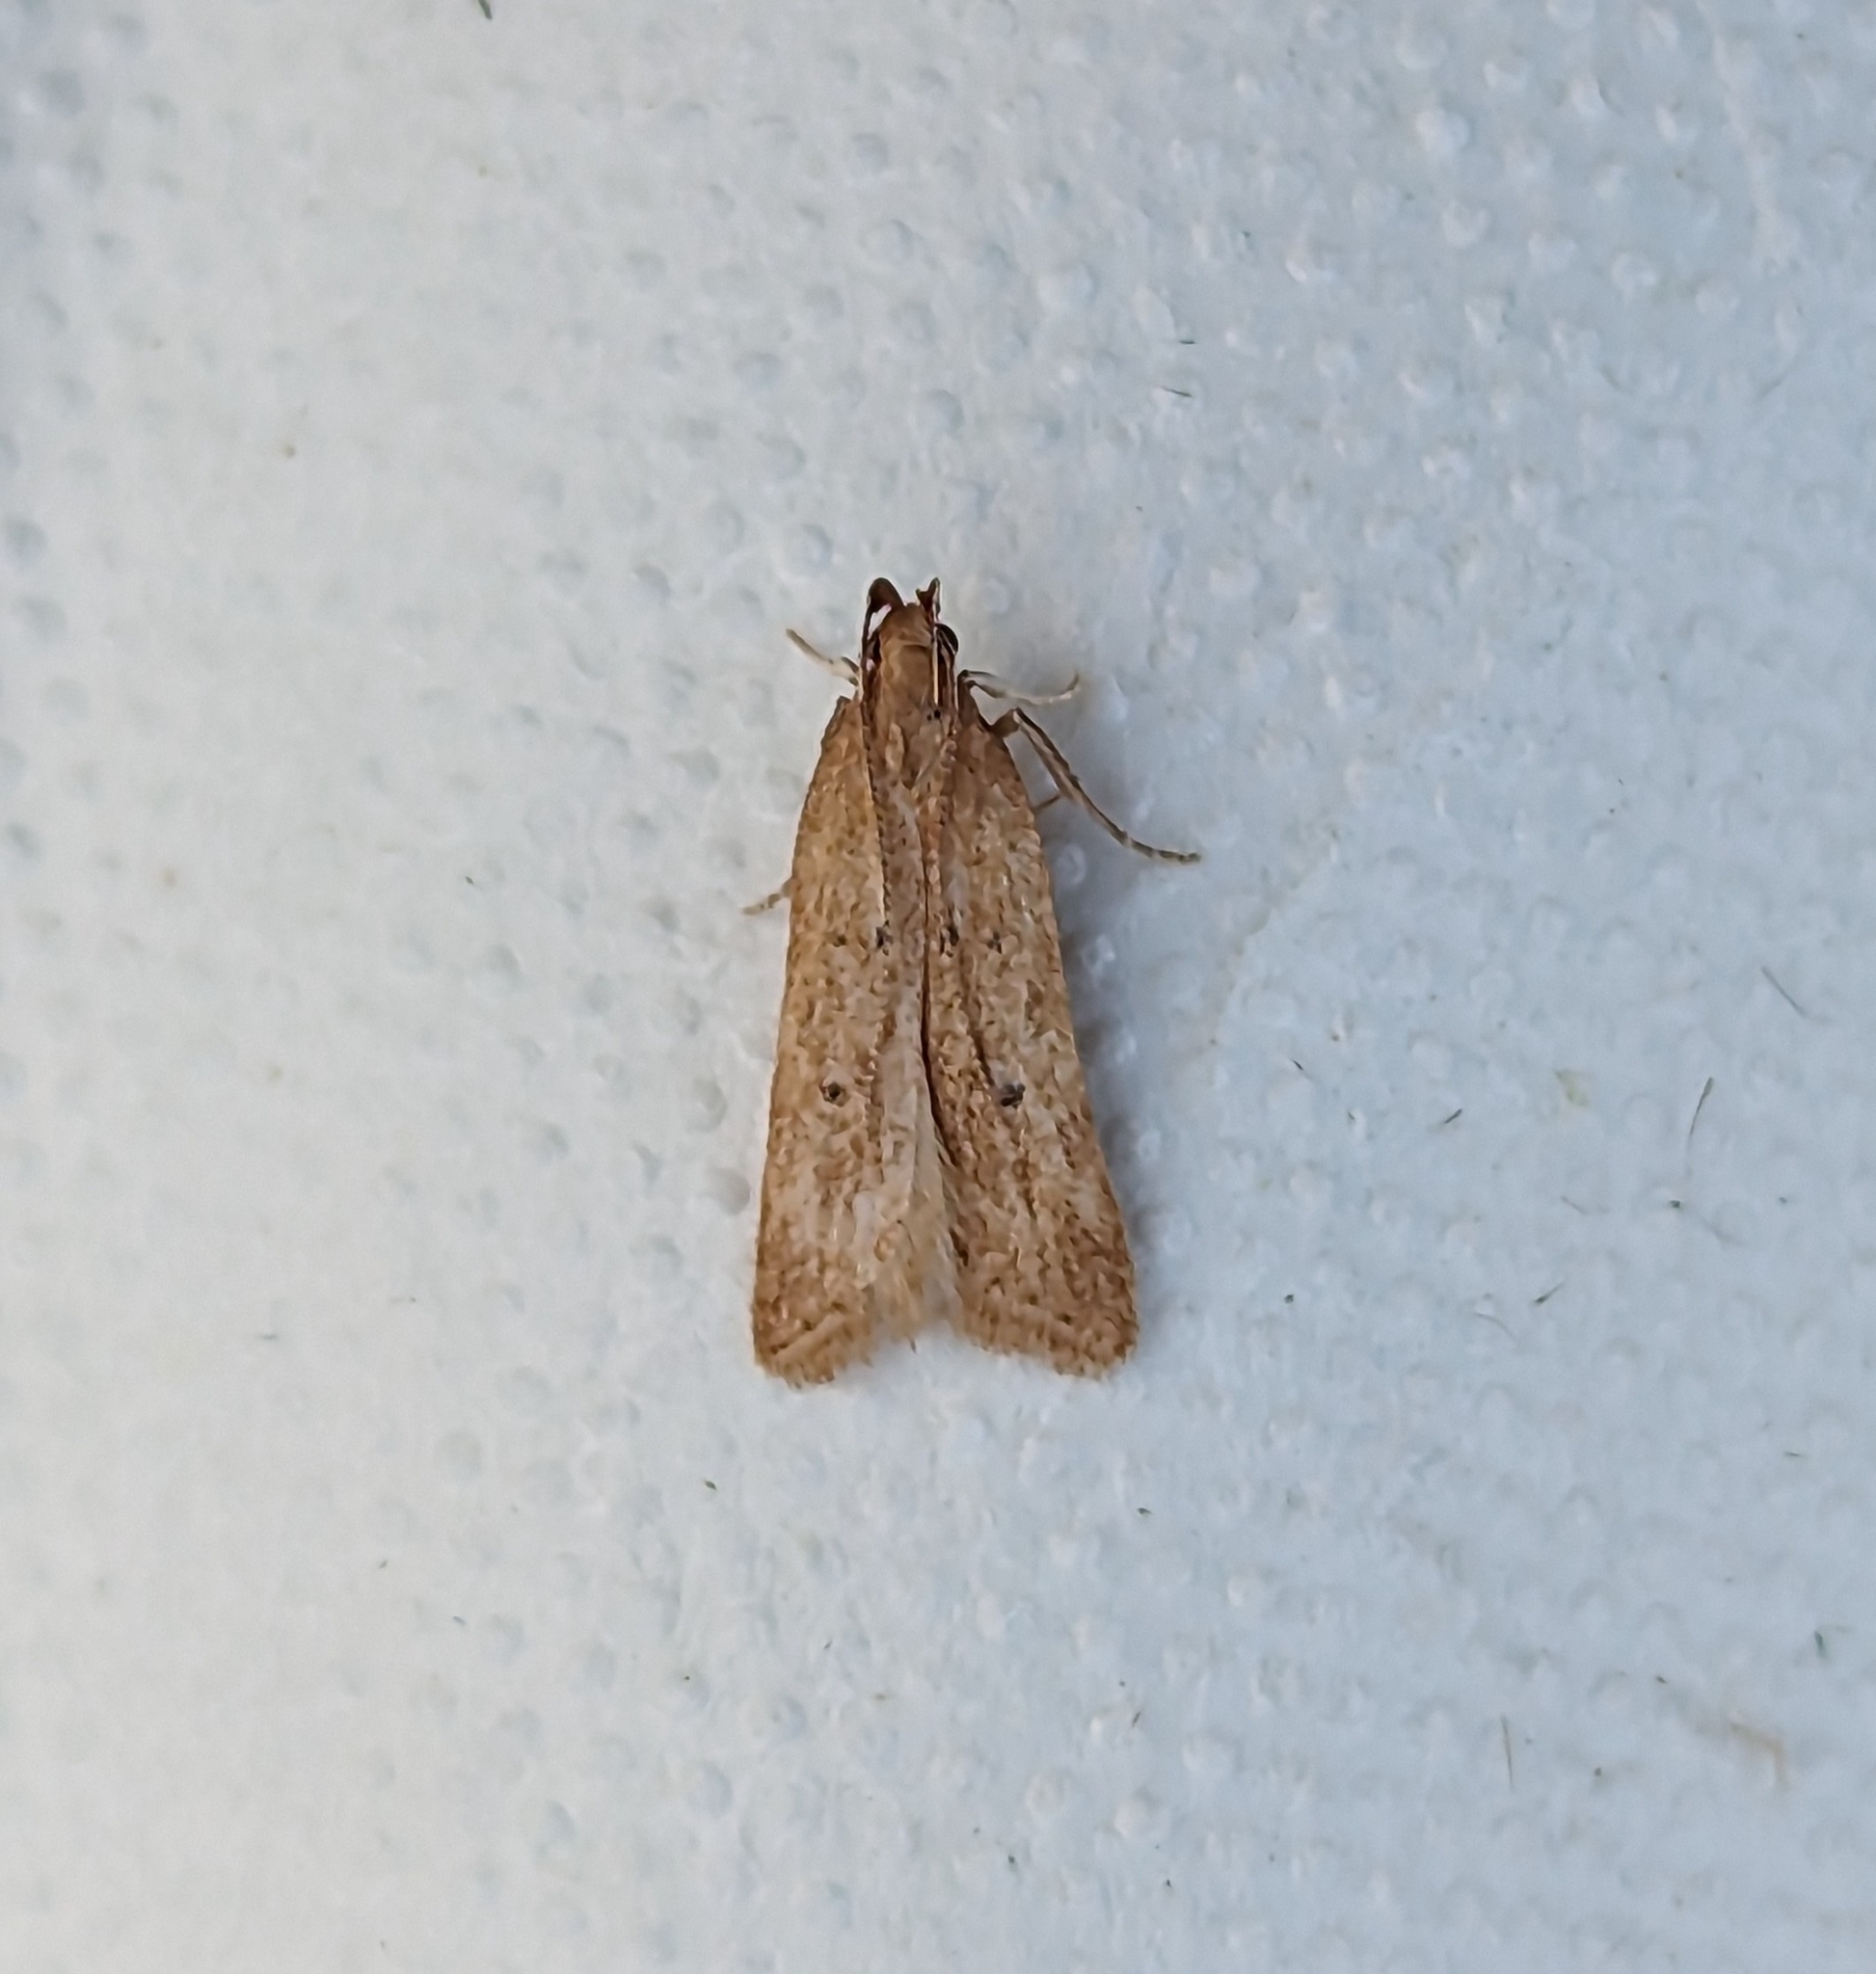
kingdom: Animalia
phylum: Arthropoda
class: Insecta
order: Lepidoptera
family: Gelechiidae
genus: Helcystogramma
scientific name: Helcystogramma badia
